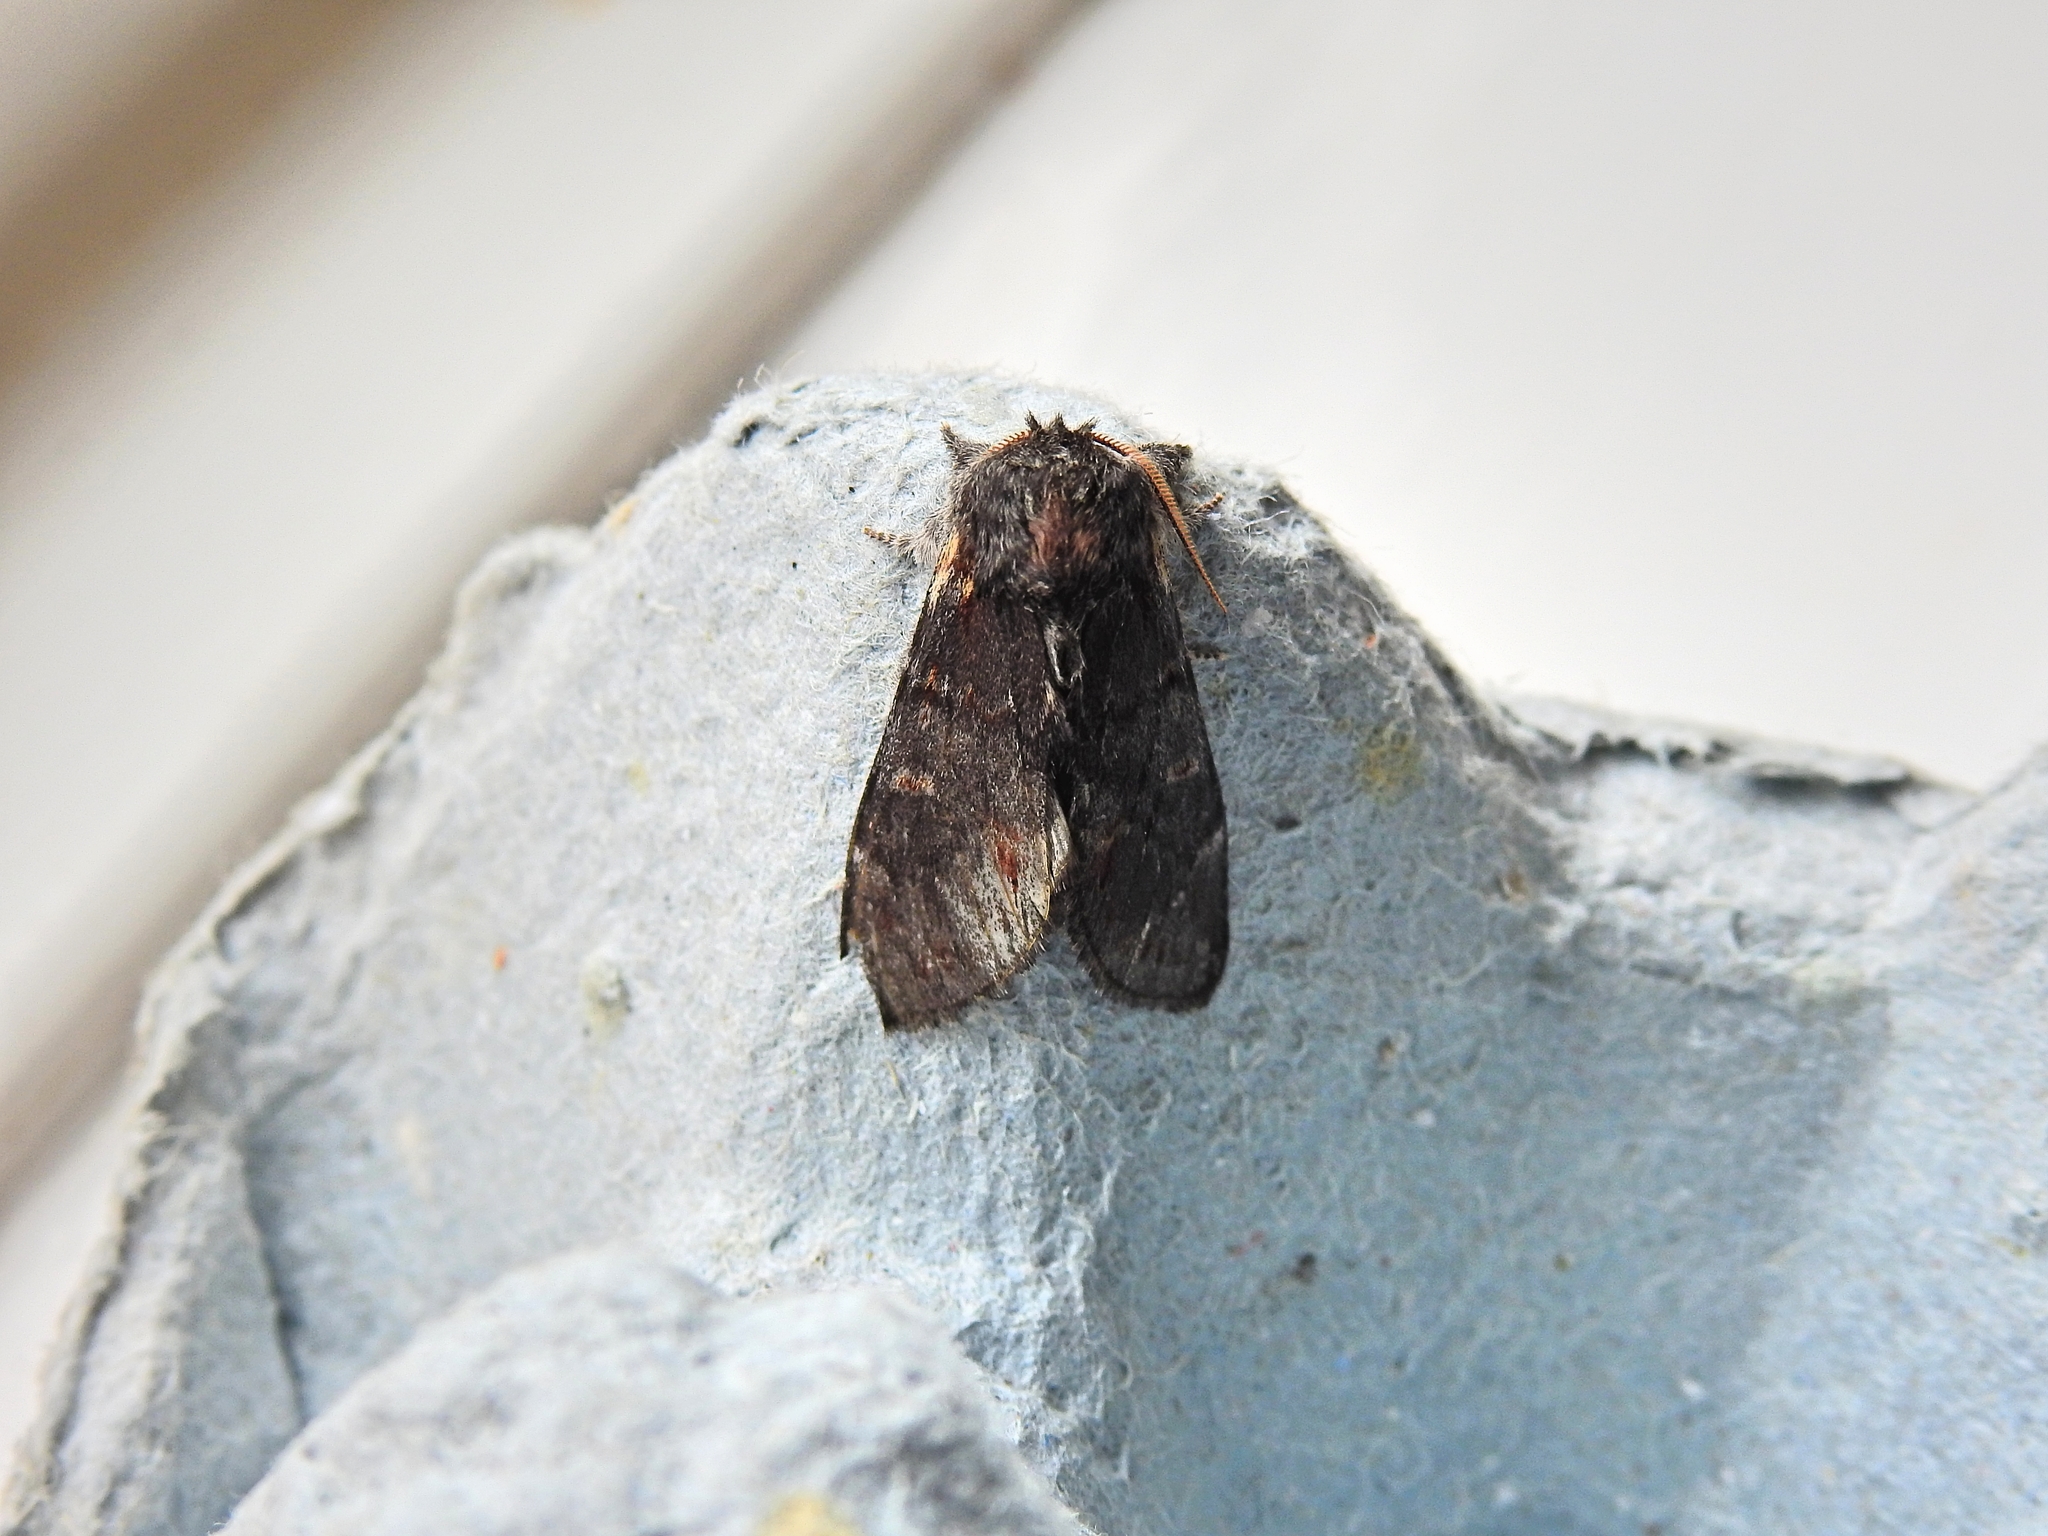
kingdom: Animalia
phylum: Arthropoda
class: Insecta
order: Lepidoptera
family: Notodontidae
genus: Notodonta
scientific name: Notodonta dromedarius
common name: Iron prominent
